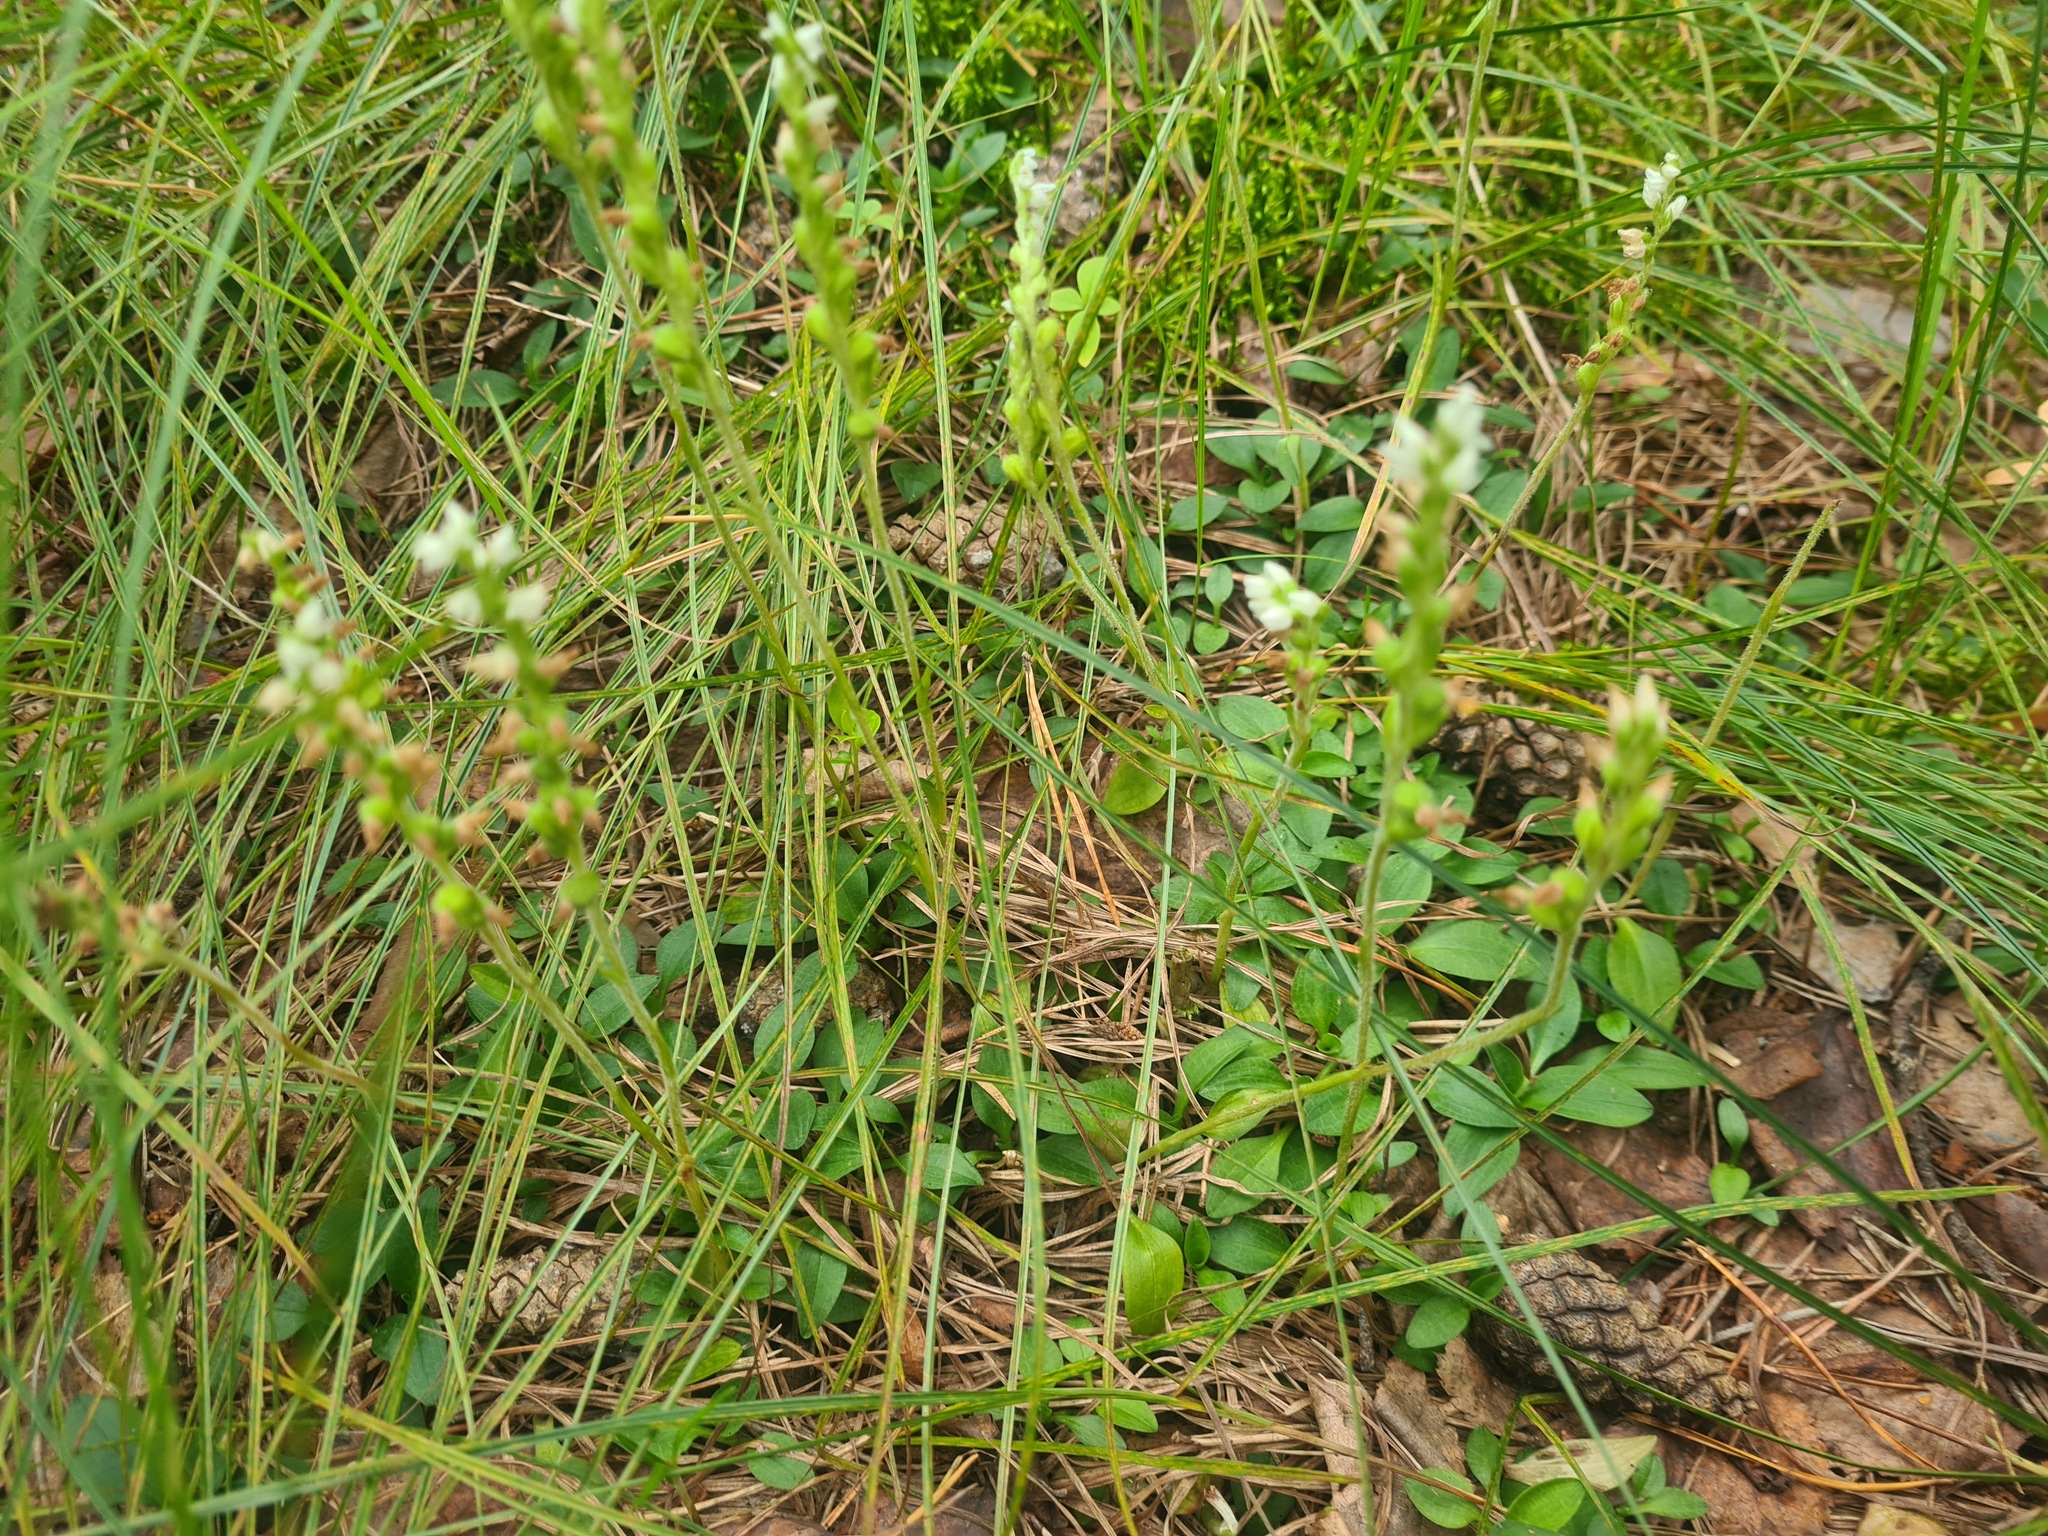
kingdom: Plantae
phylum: Tracheophyta
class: Liliopsida
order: Asparagales
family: Orchidaceae
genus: Goodyera
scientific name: Goodyera repens
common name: Creeping lady's-tresses
